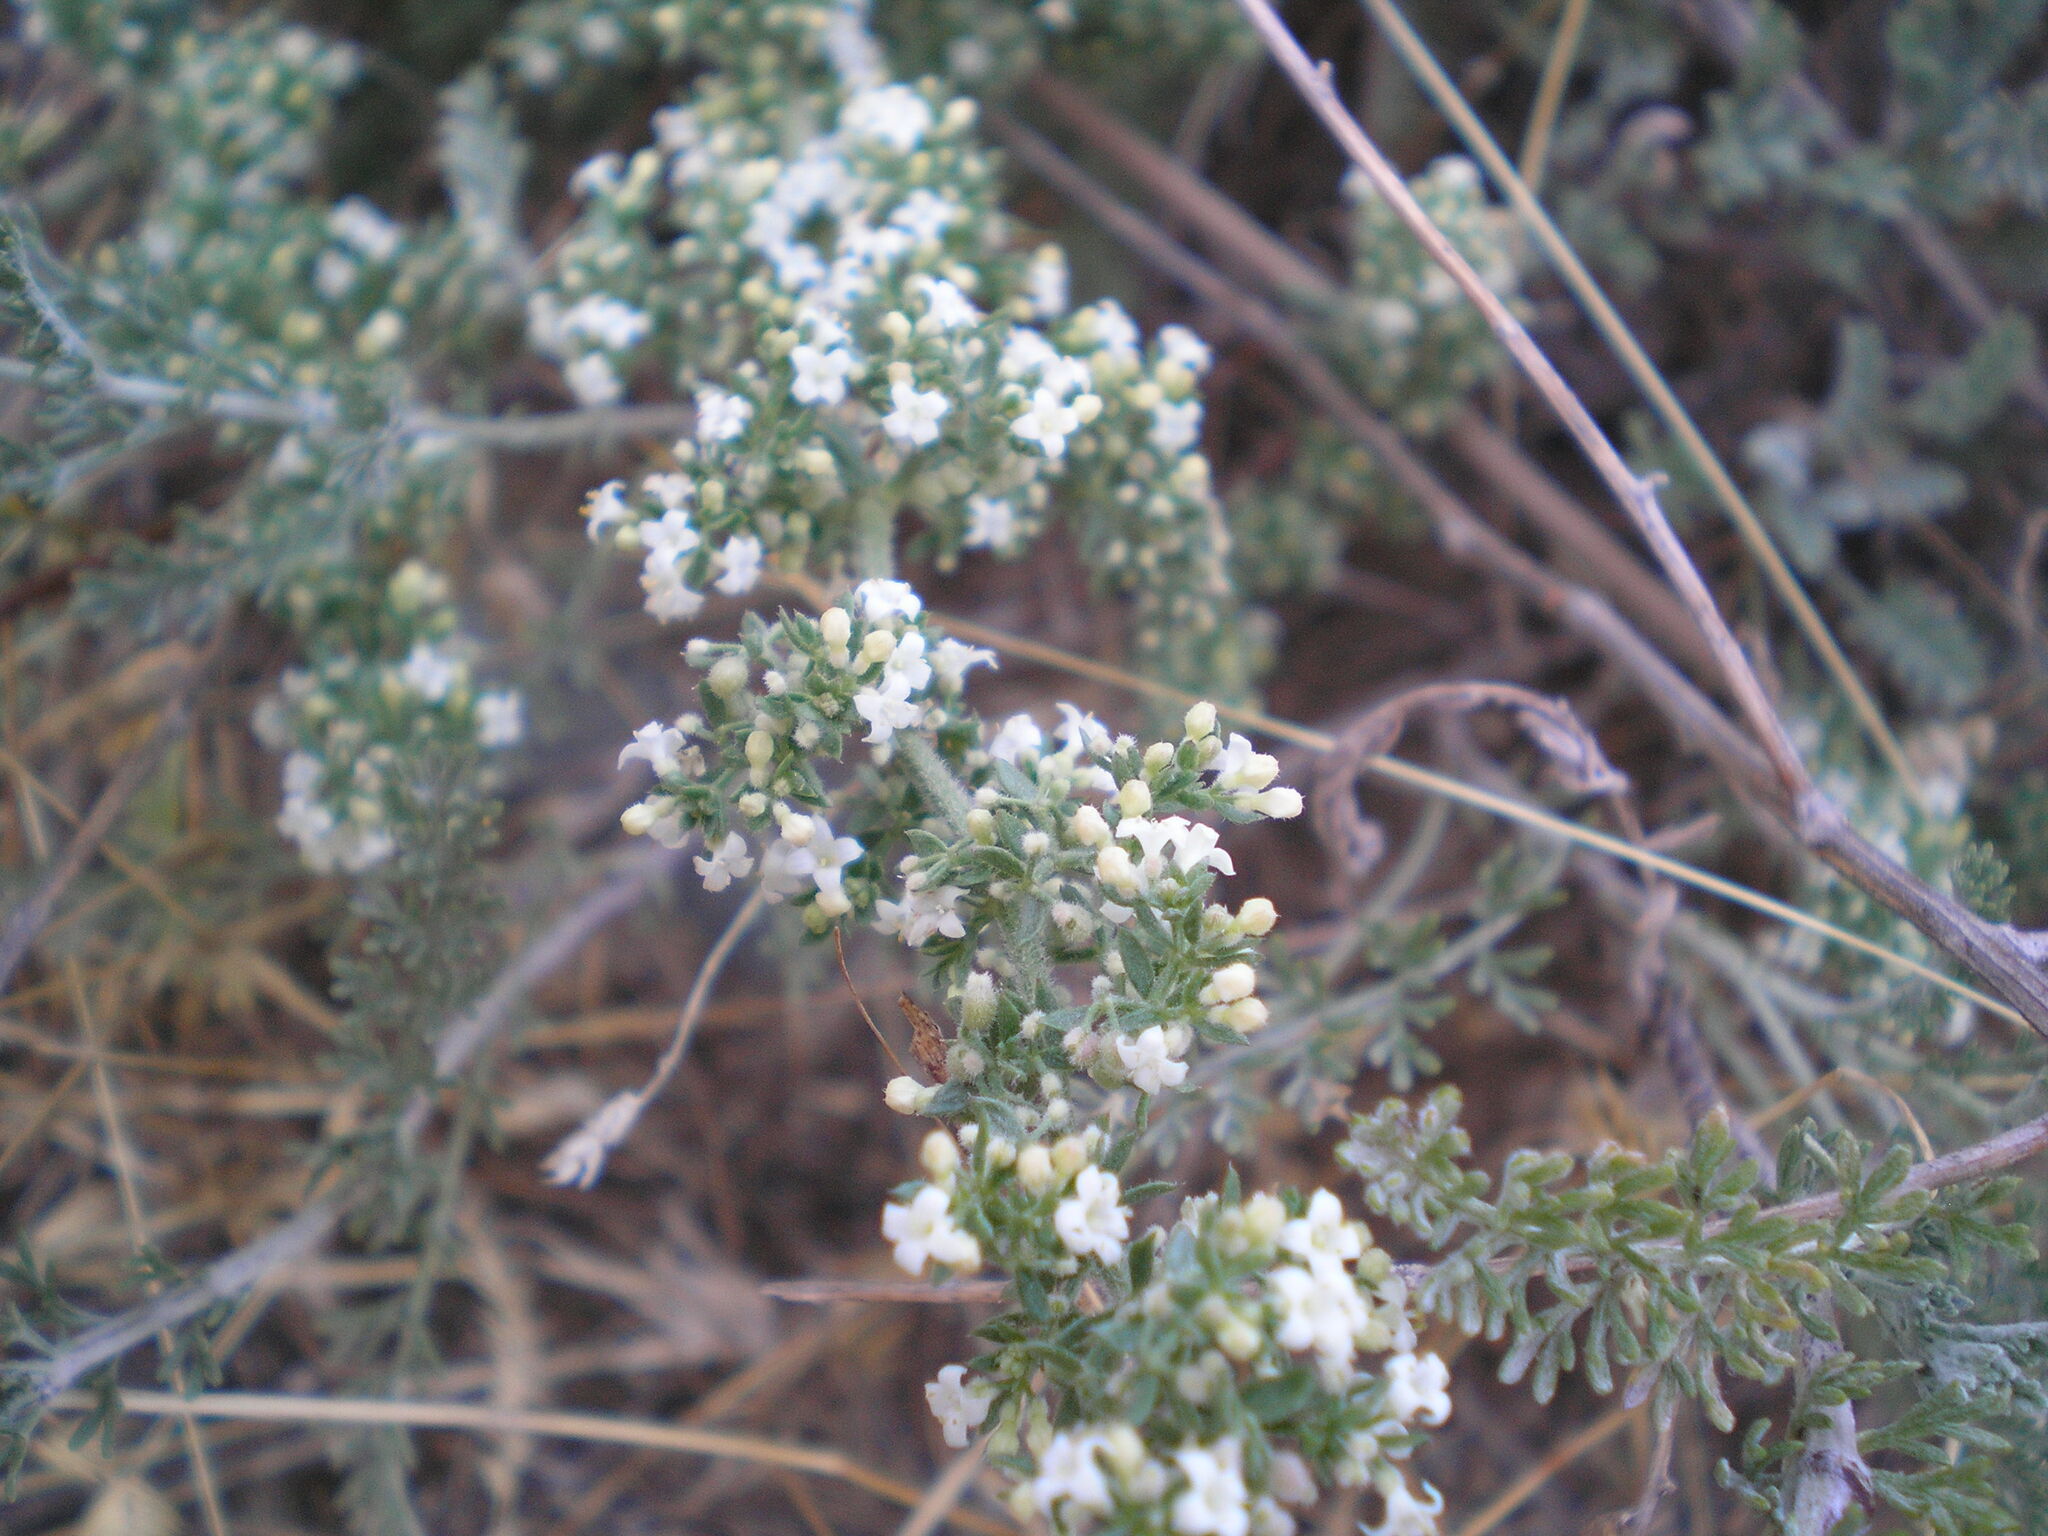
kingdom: Plantae
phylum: Tracheophyta
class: Magnoliopsida
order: Gentianales
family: Rubiaceae
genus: Galium
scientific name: Galium humifusum
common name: Spreading bedstraw
